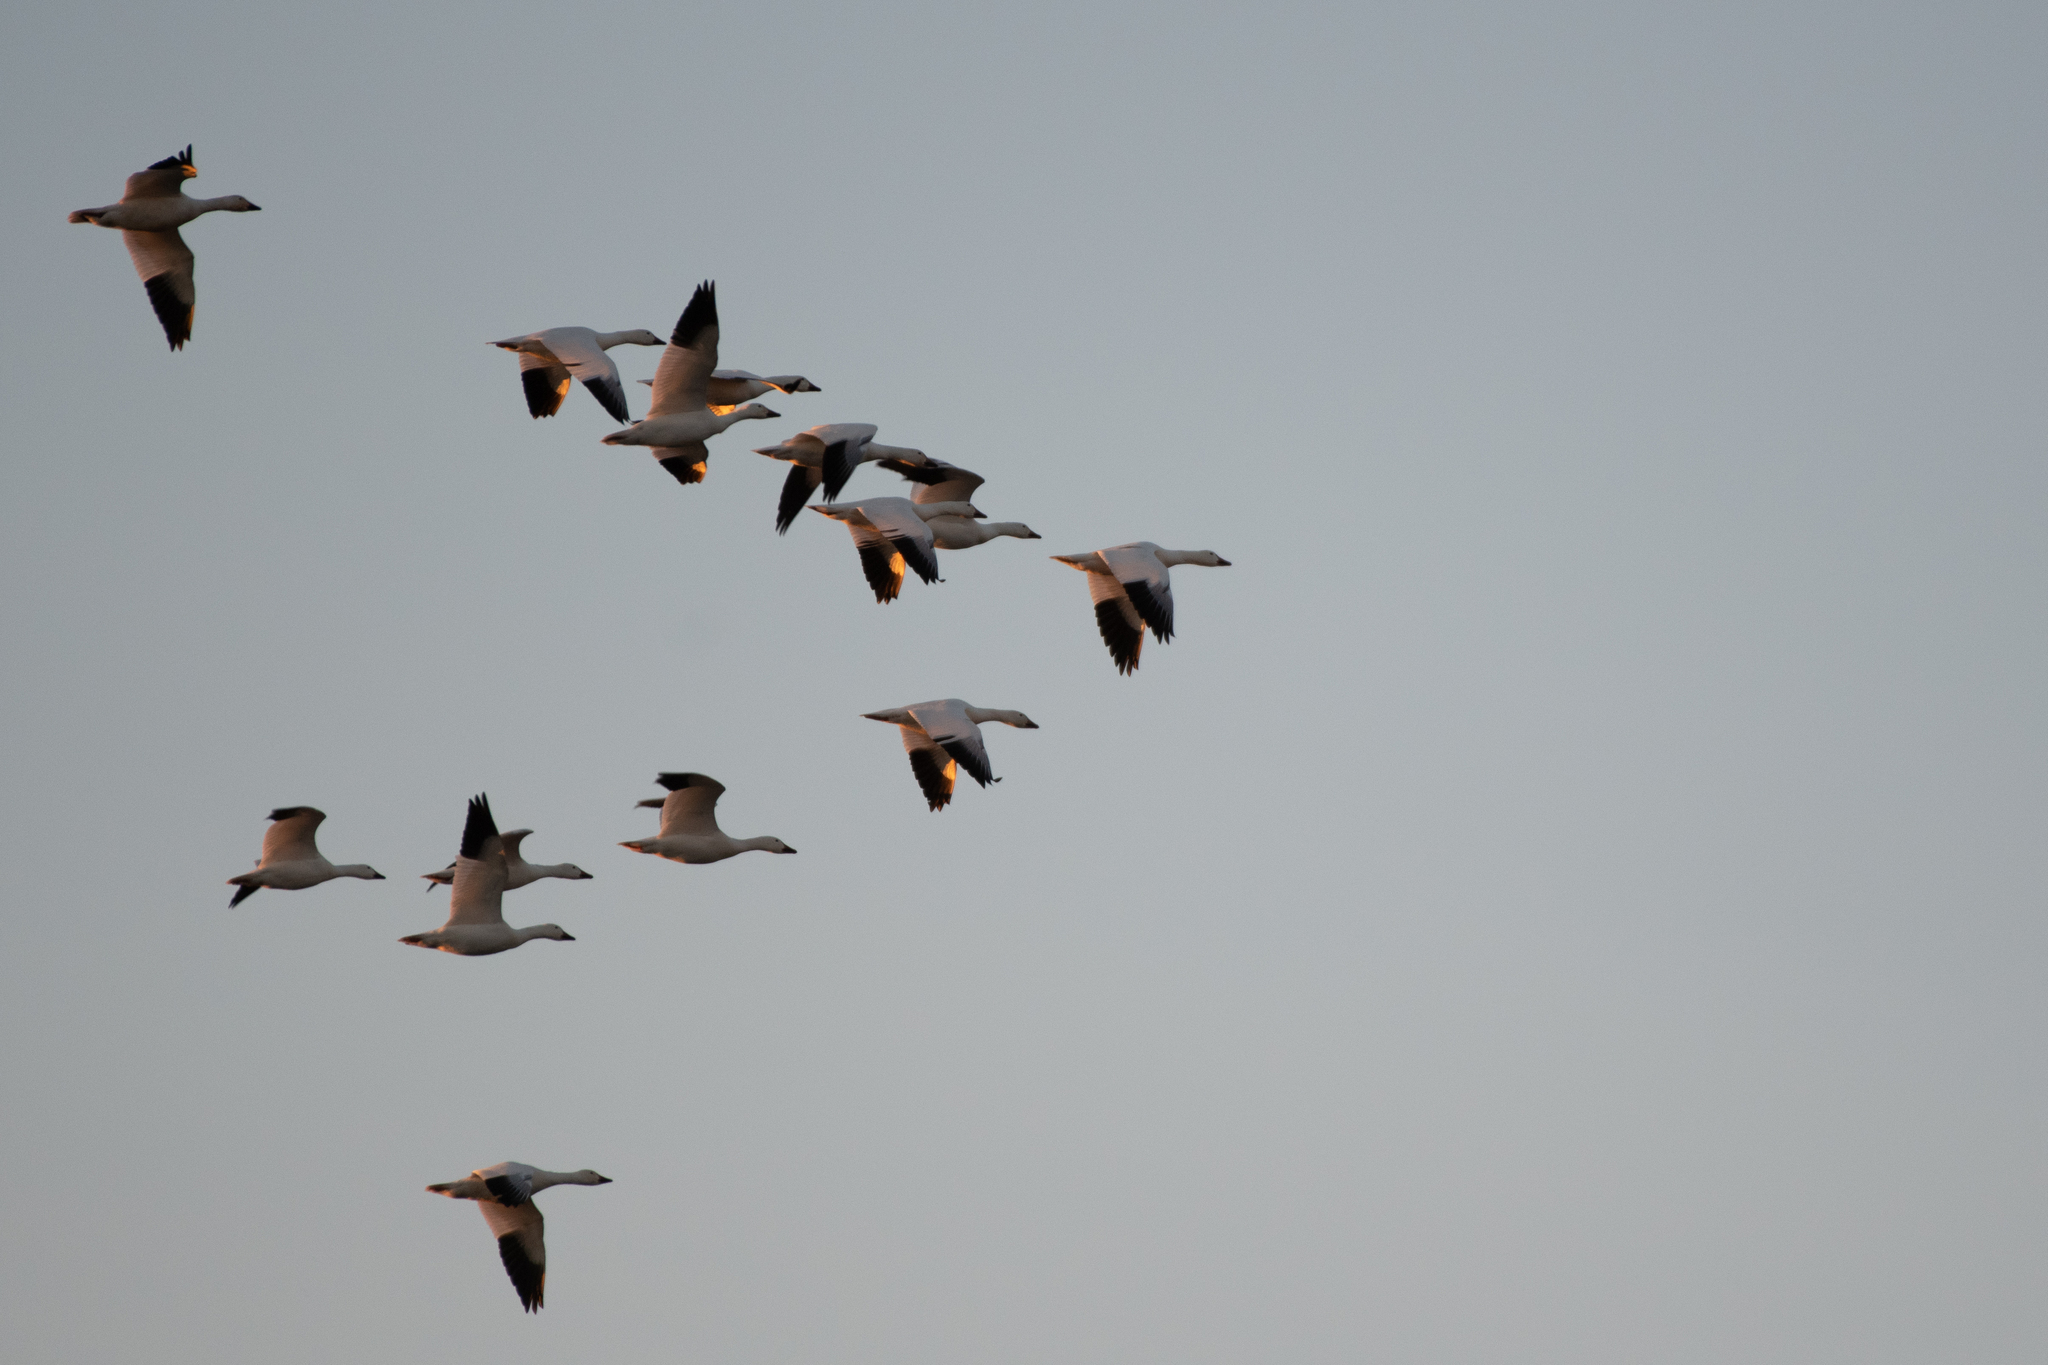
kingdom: Animalia
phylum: Chordata
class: Aves
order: Anseriformes
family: Anatidae
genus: Anser
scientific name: Anser caerulescens
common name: Snow goose
